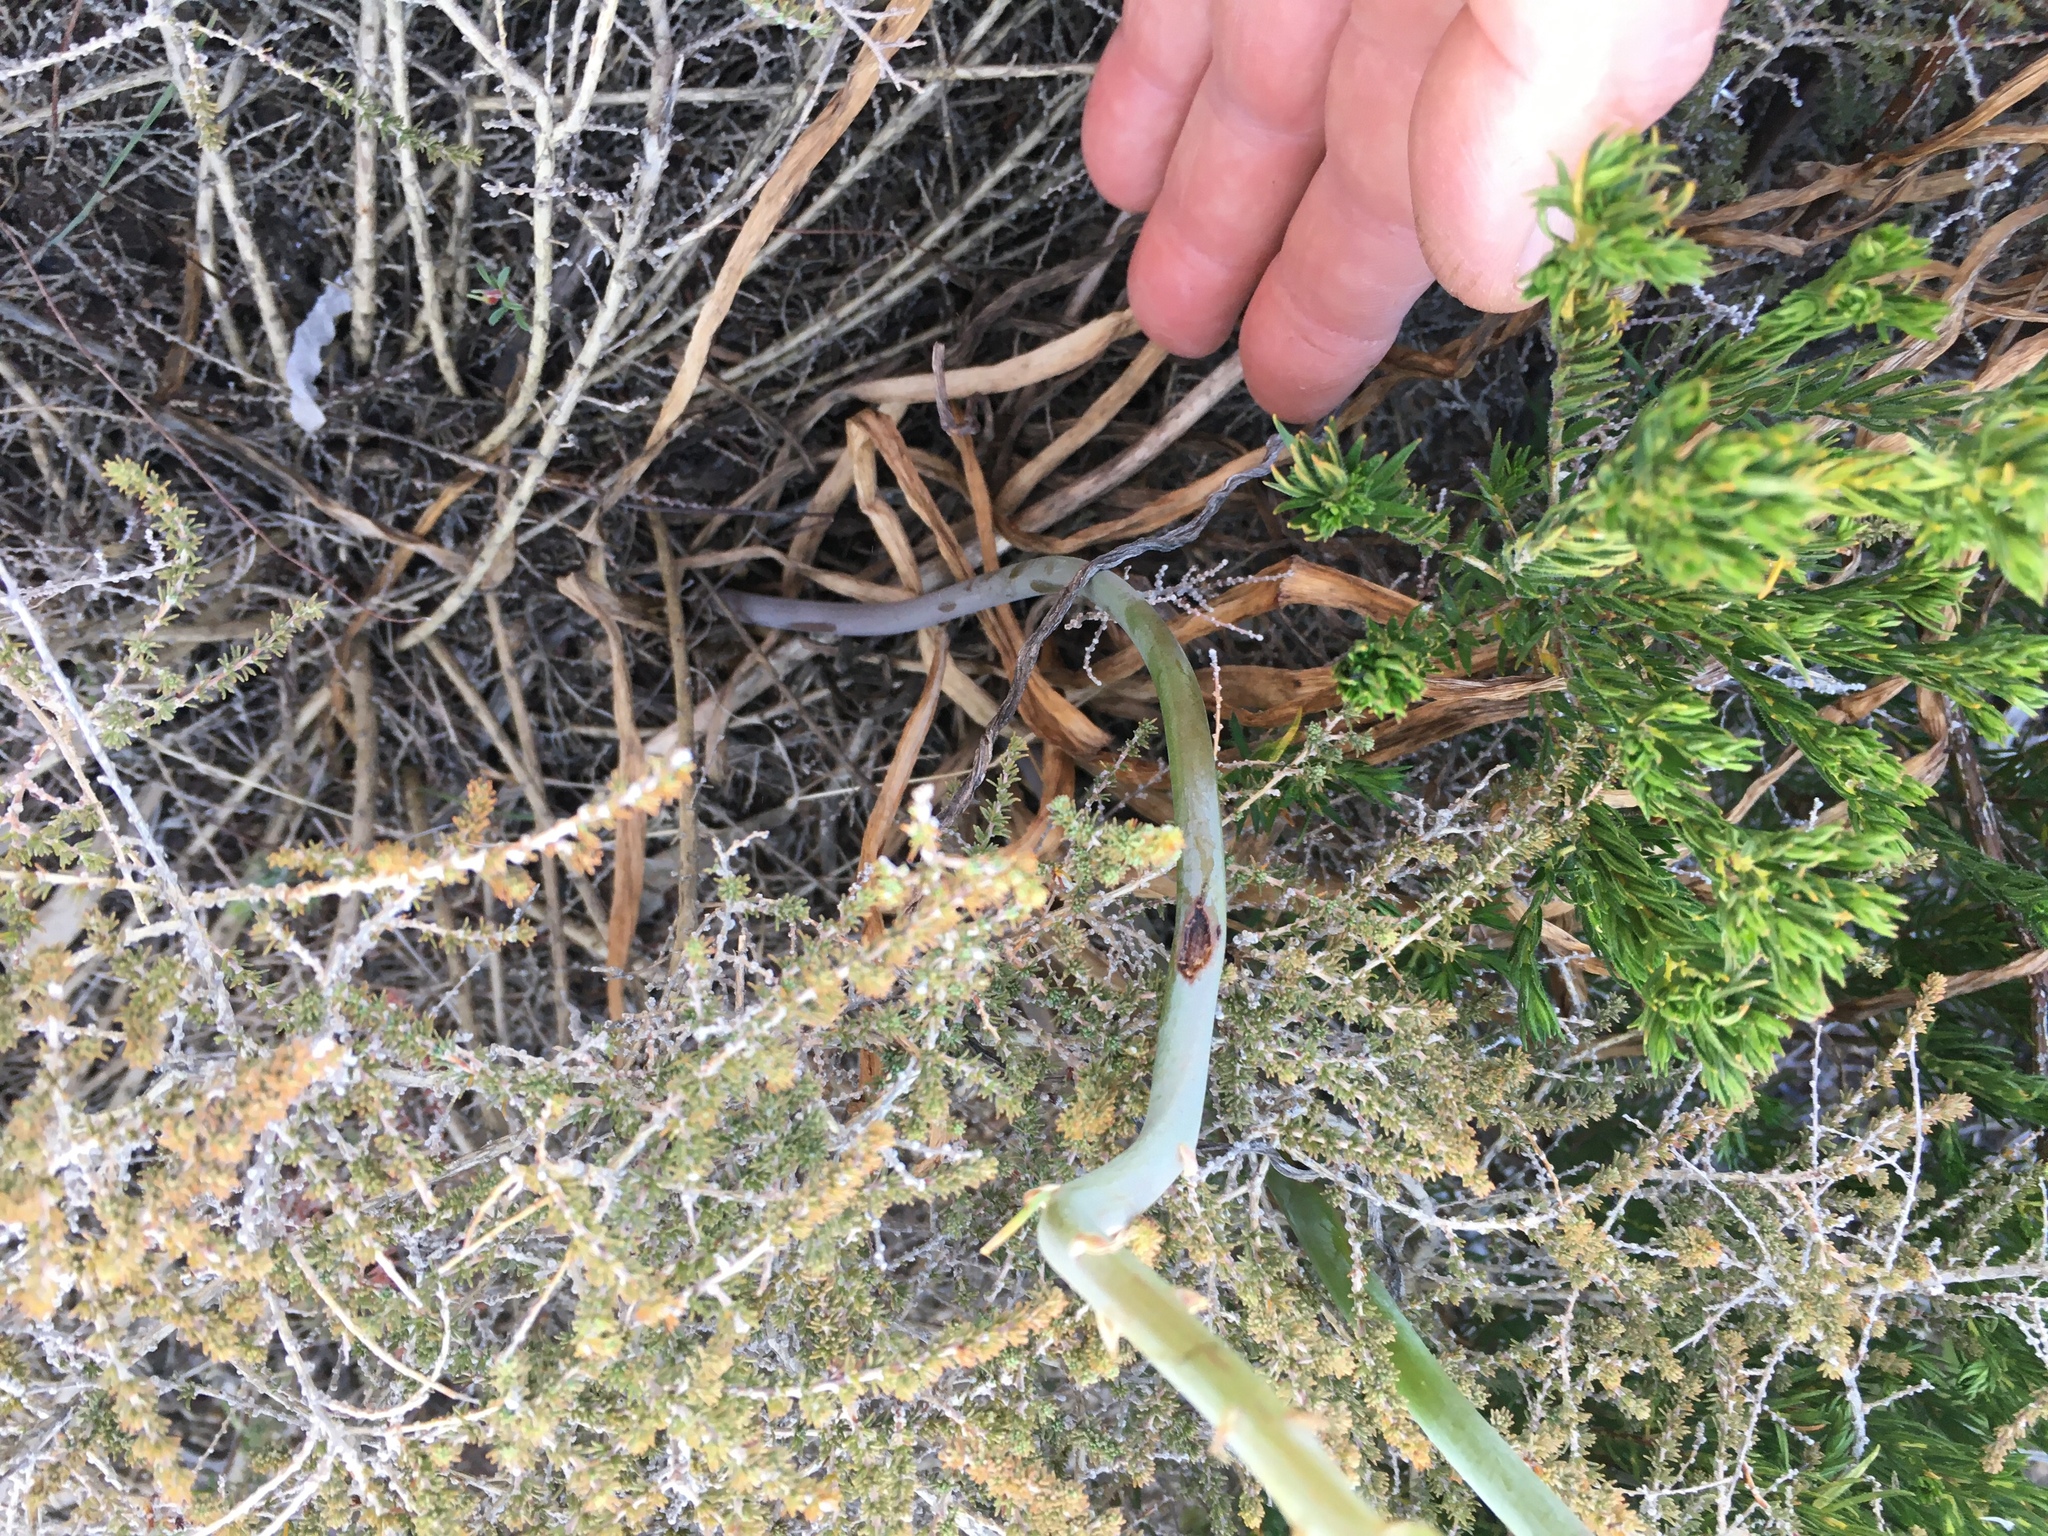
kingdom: Plantae
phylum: Tracheophyta
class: Liliopsida
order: Asparagales
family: Asphodelaceae
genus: Bulbine
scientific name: Bulbine cepacea
